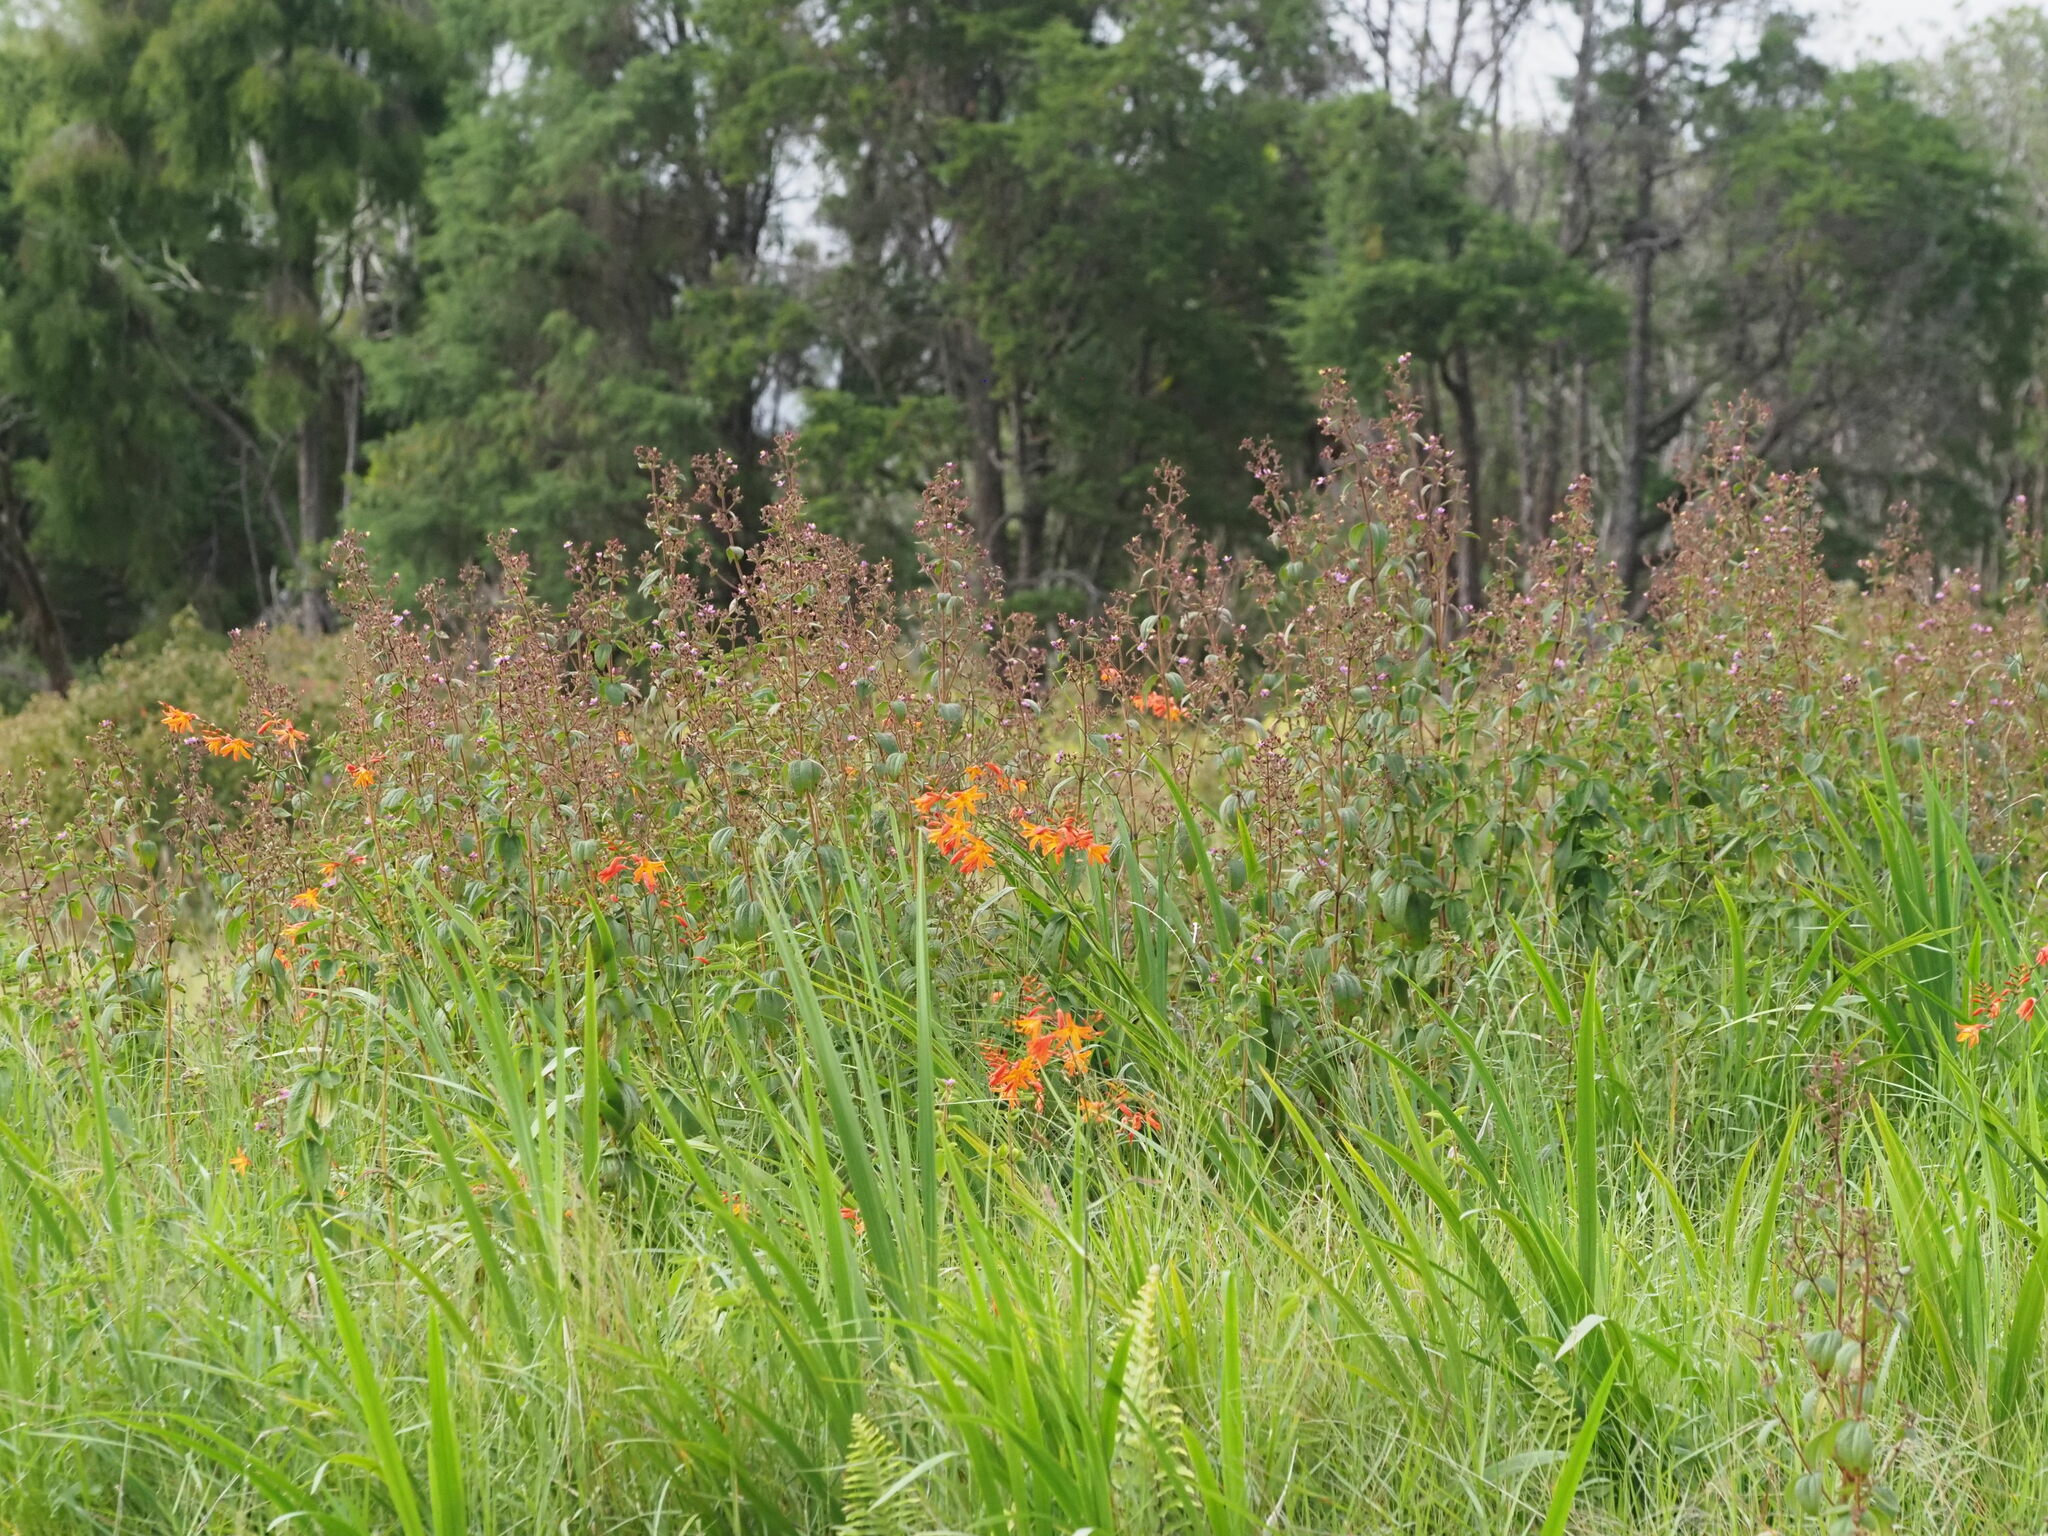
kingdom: Plantae
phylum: Tracheophyta
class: Liliopsida
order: Asparagales
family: Iridaceae
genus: Crocosmia
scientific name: Crocosmia crocosmiiflora
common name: Montbretia
